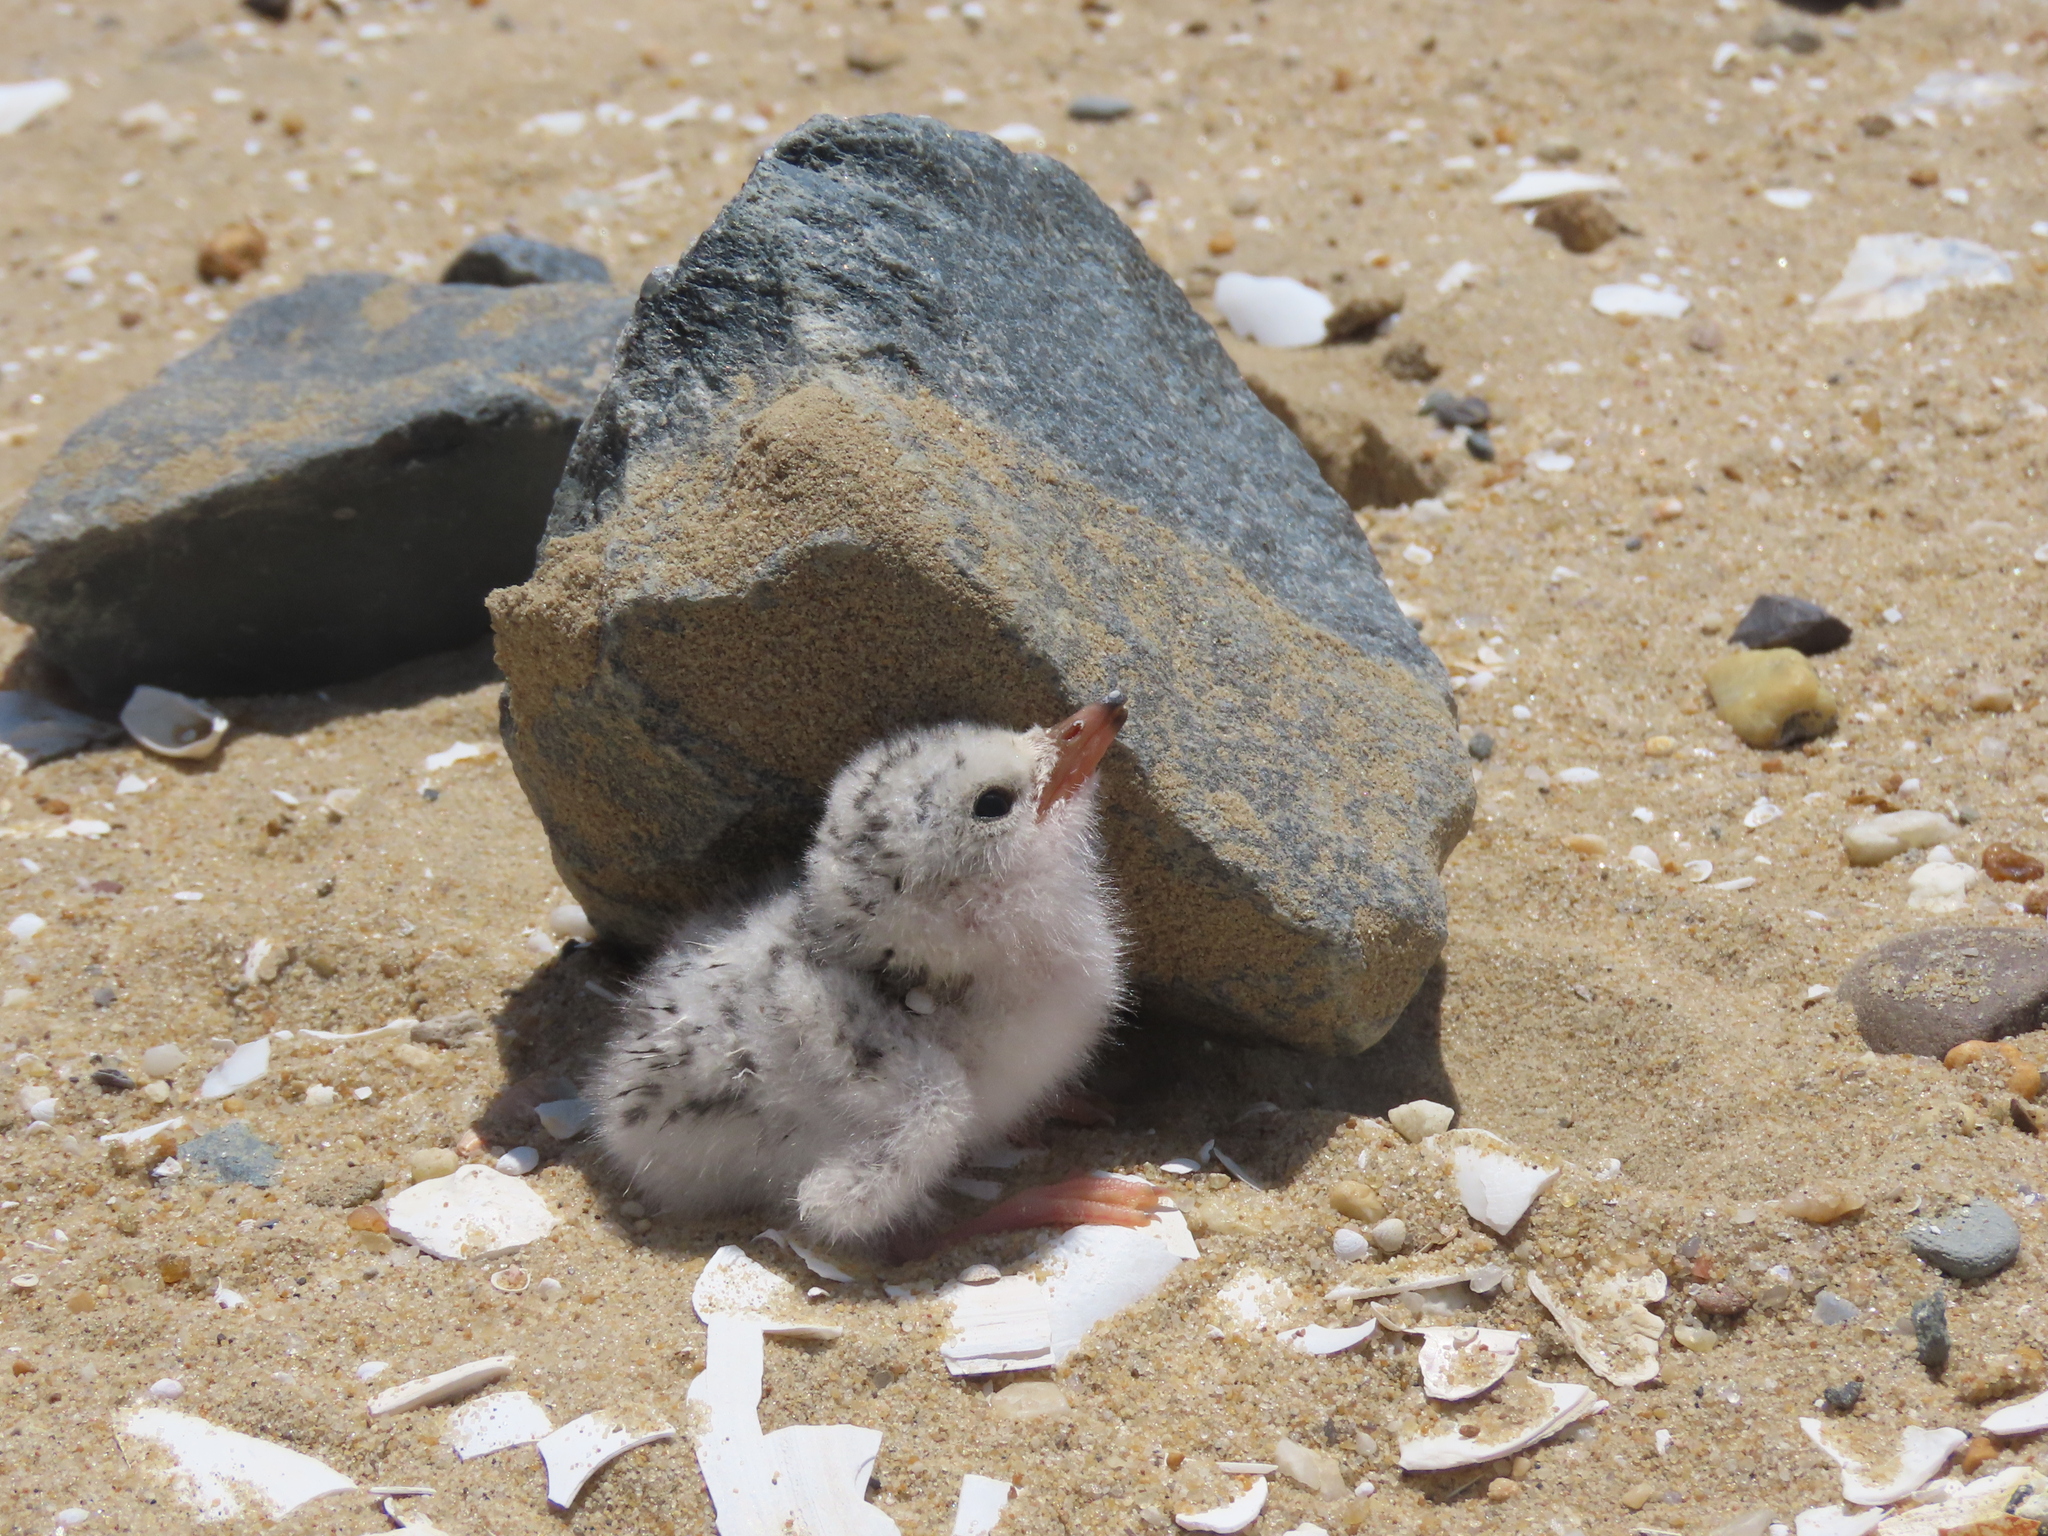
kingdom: Animalia
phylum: Chordata
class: Aves
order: Charadriiformes
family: Laridae
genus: Sternula
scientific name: Sternula antillarum
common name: Least tern
